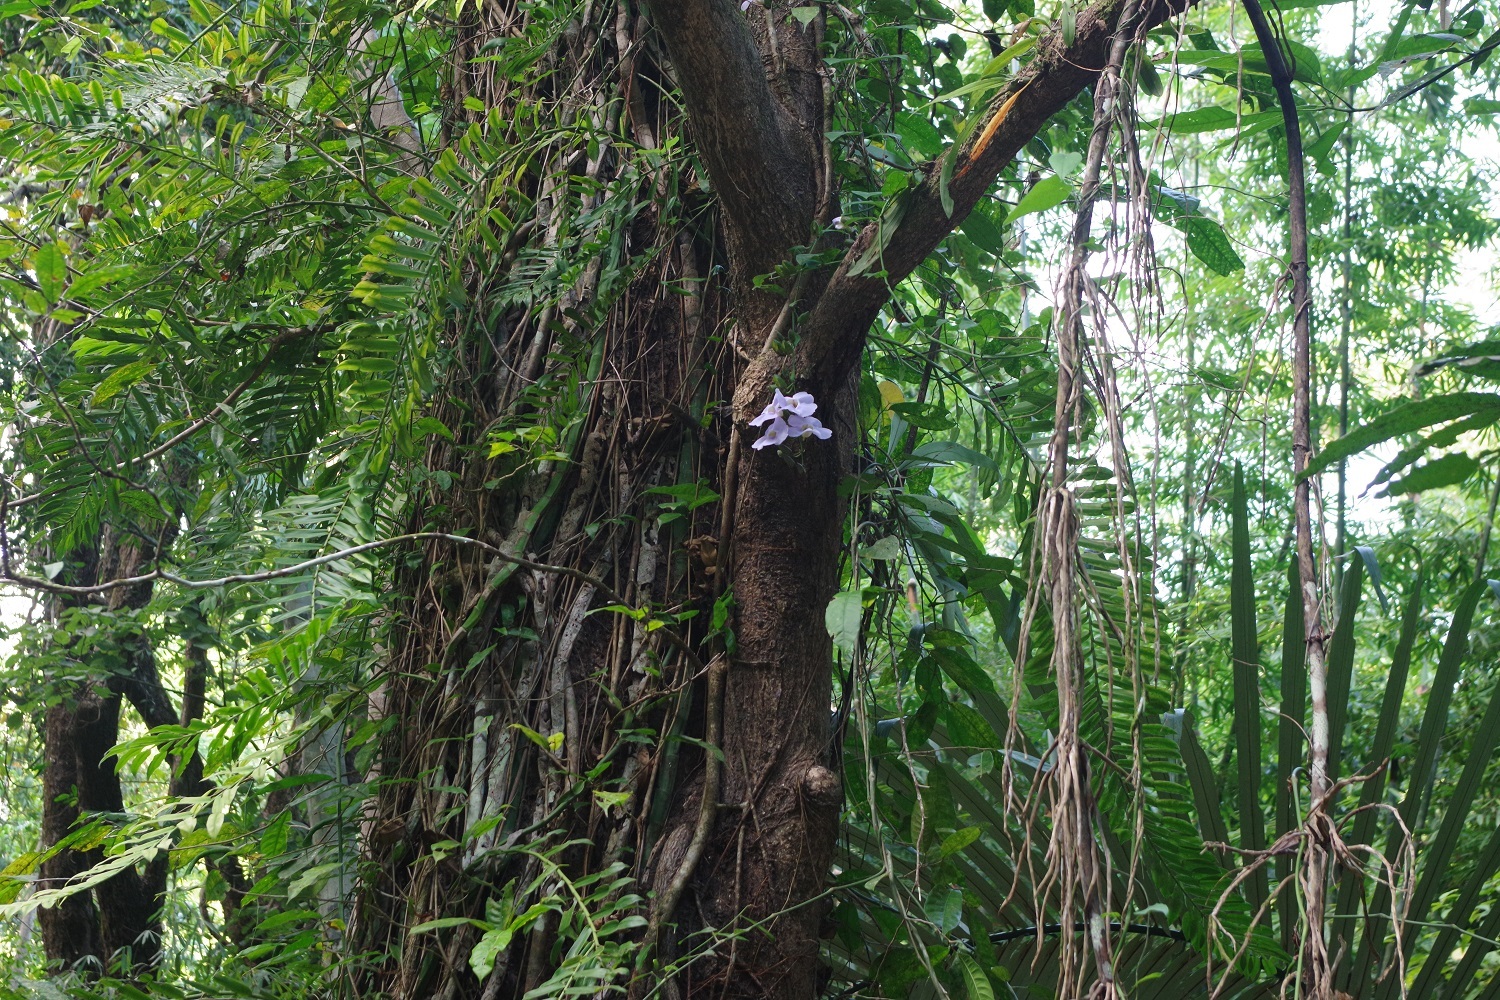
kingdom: Plantae
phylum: Tracheophyta
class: Magnoliopsida
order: Lamiales
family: Acanthaceae
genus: Thunbergia
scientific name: Thunbergia grandiflora
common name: Bengal trumpet
